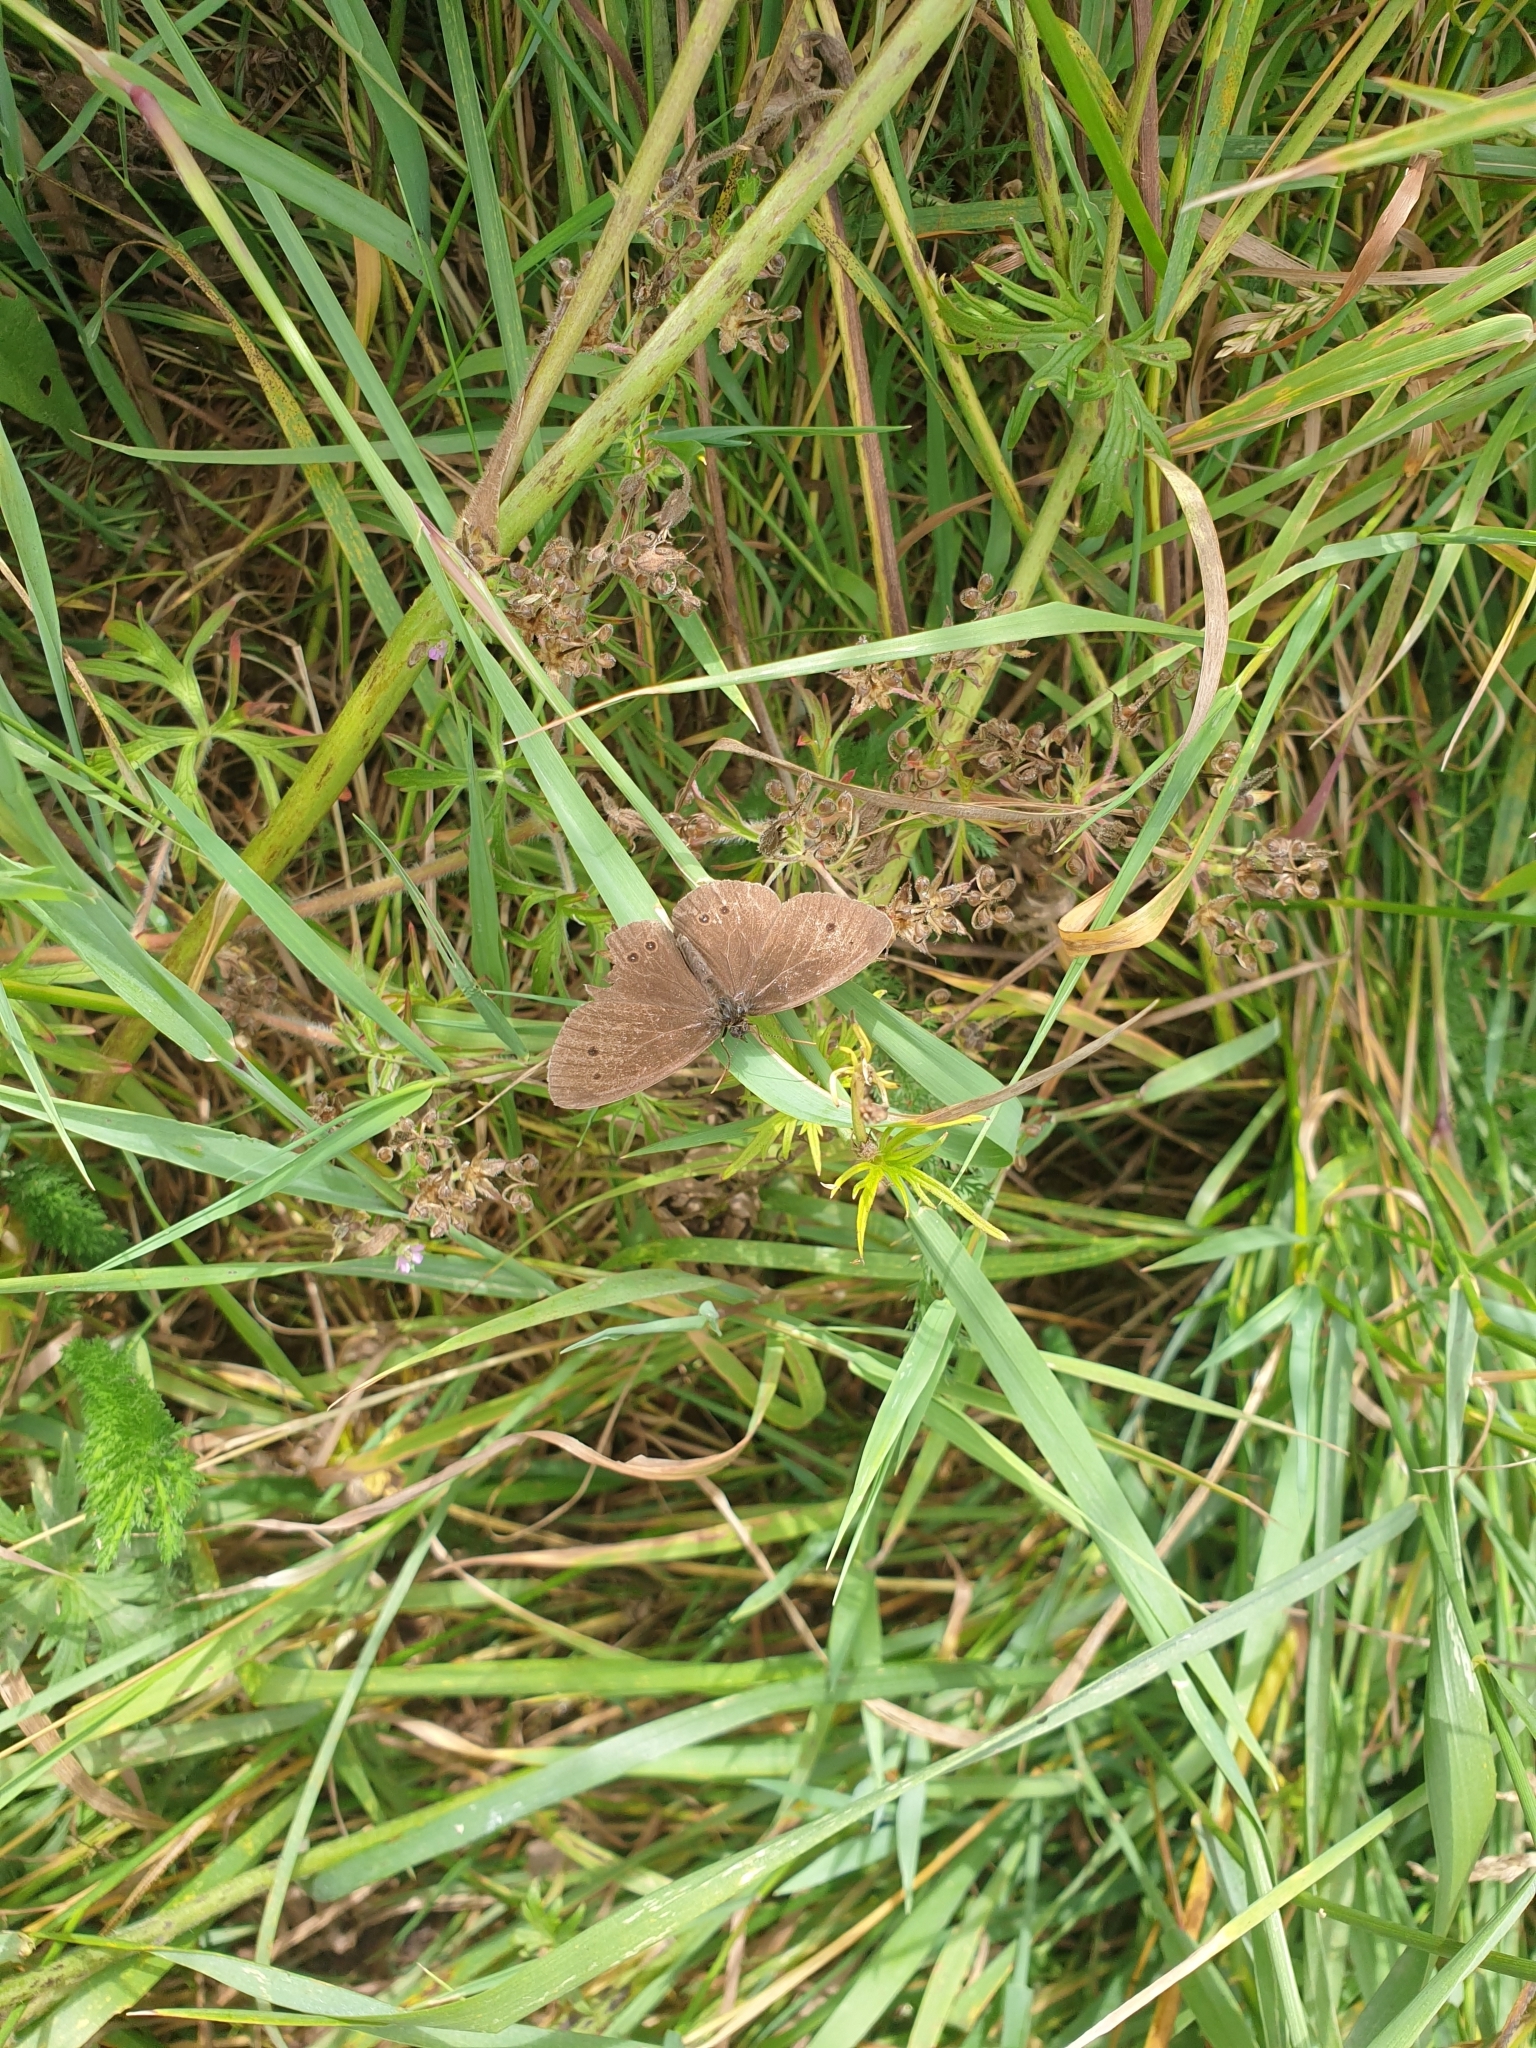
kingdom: Animalia
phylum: Arthropoda
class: Insecta
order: Lepidoptera
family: Nymphalidae
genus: Aphantopus
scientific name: Aphantopus hyperantus
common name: Ringlet
